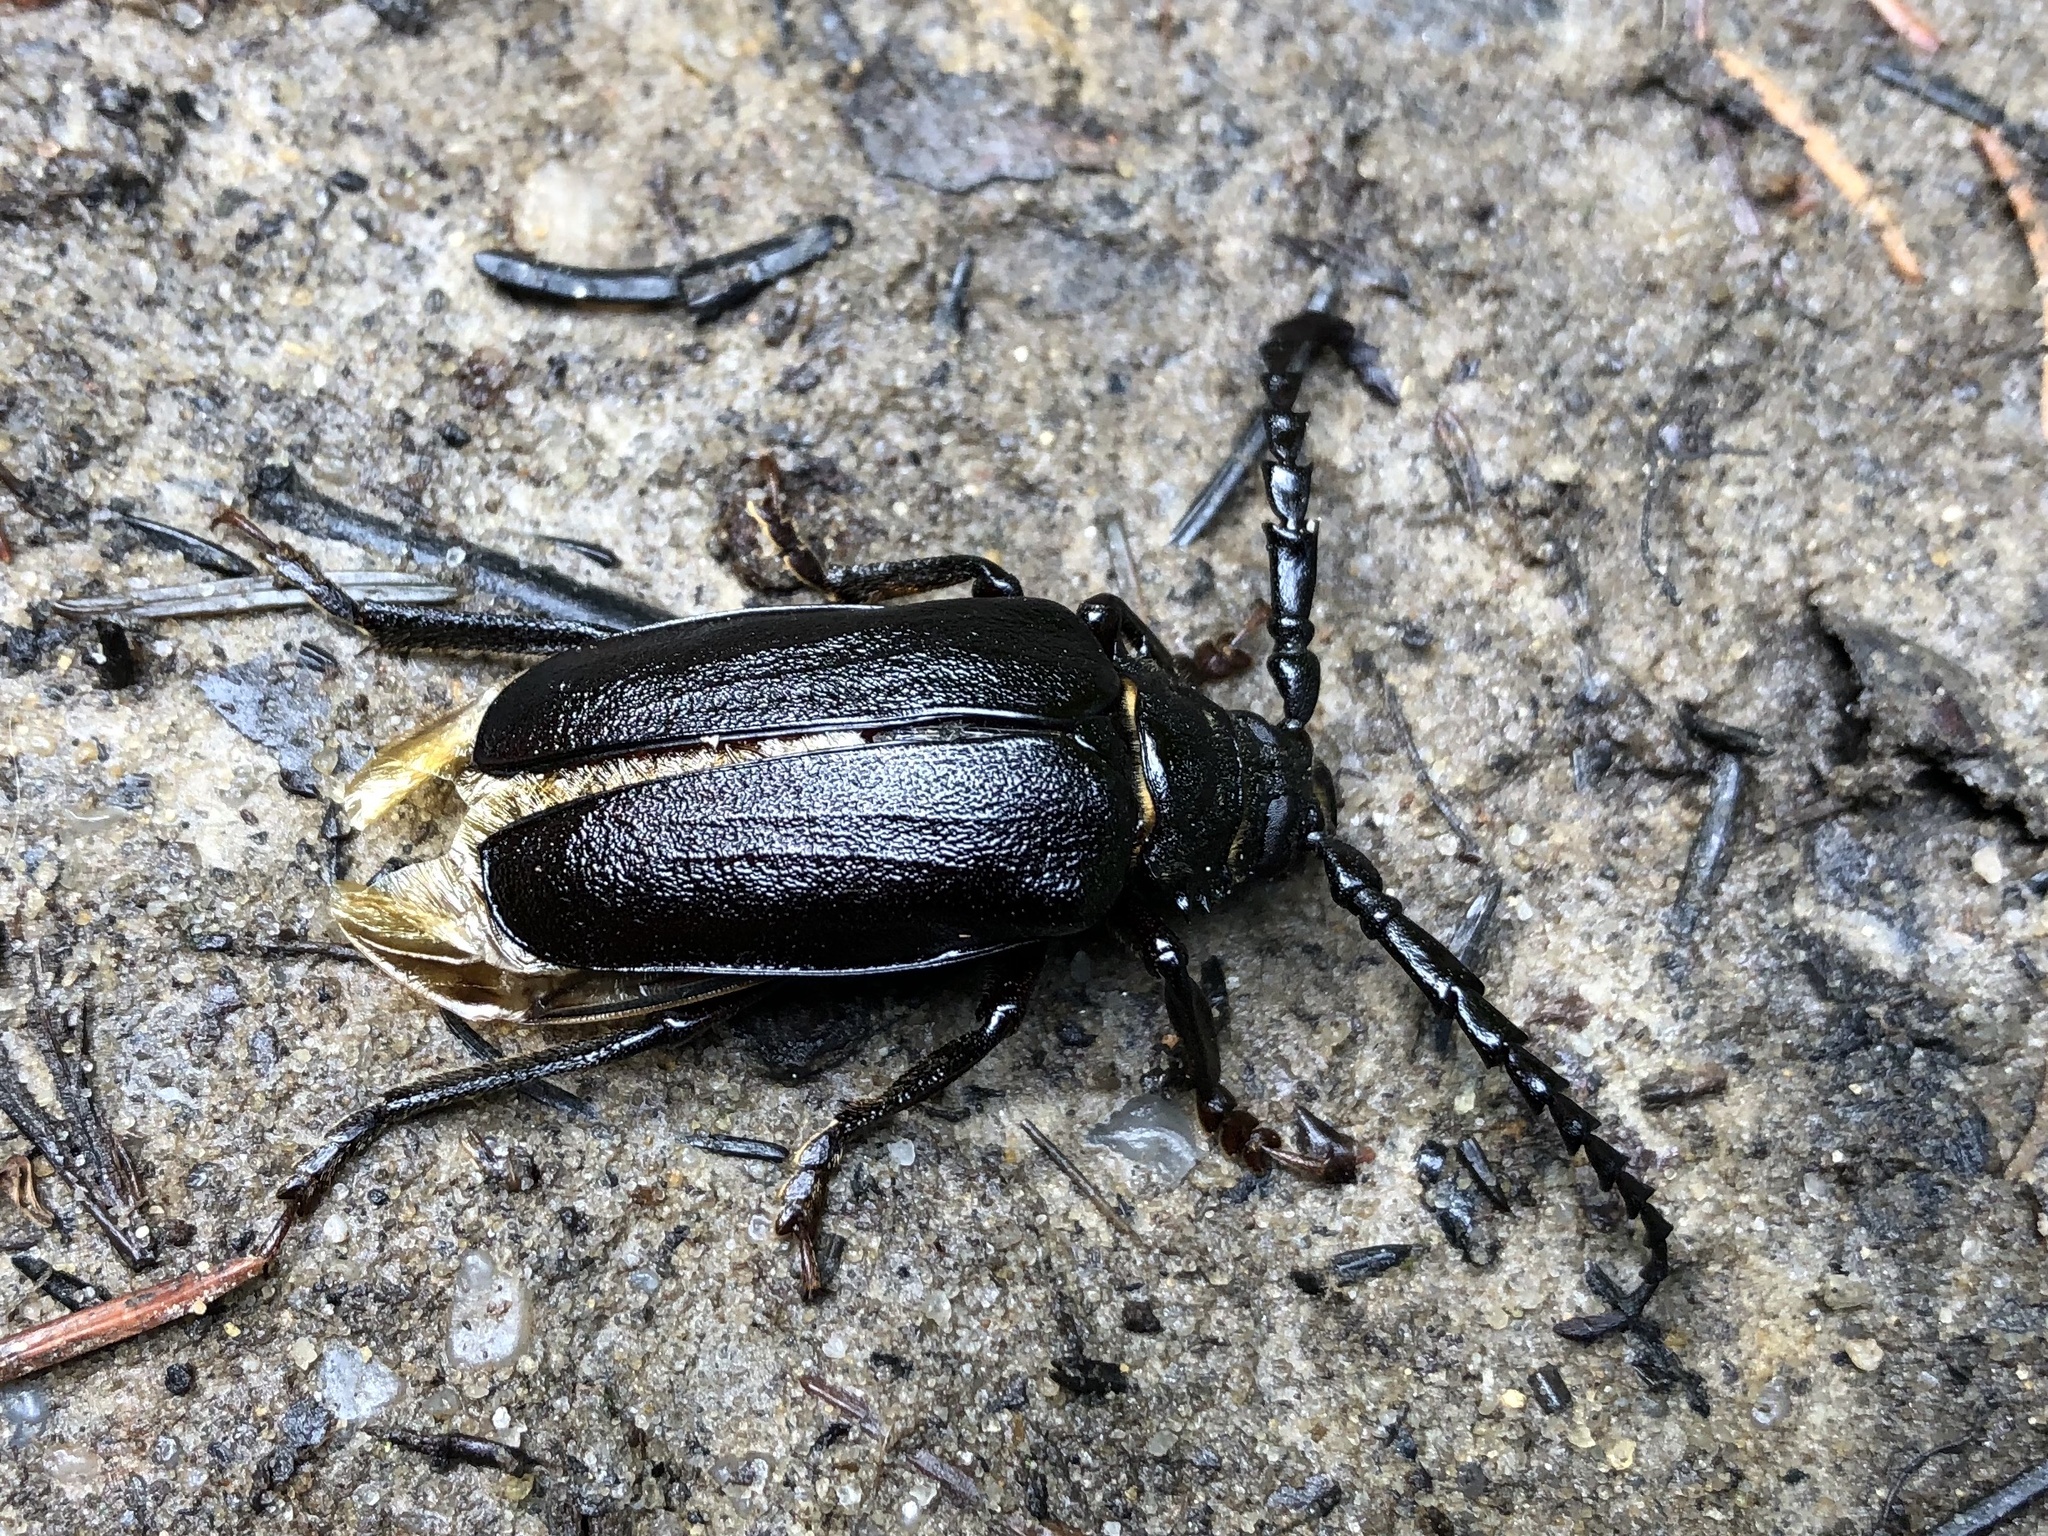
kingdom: Animalia
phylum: Arthropoda
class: Insecta
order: Coleoptera
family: Cerambycidae
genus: Prionus
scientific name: Prionus coriarius
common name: Tanner beetle
